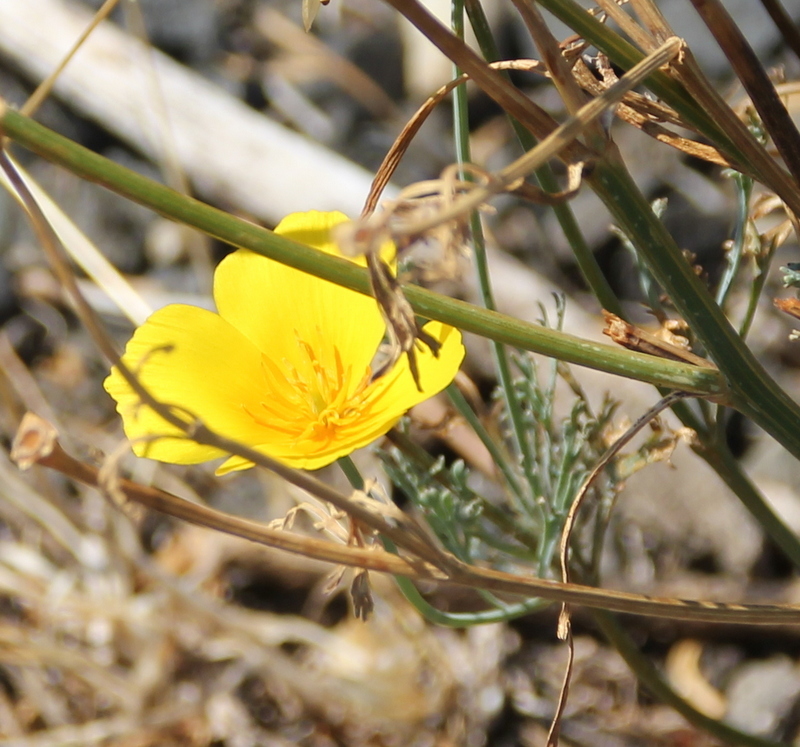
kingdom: Plantae
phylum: Tracheophyta
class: Magnoliopsida
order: Ranunculales
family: Papaveraceae
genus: Eschscholzia
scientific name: Eschscholzia californica
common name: California poppy
